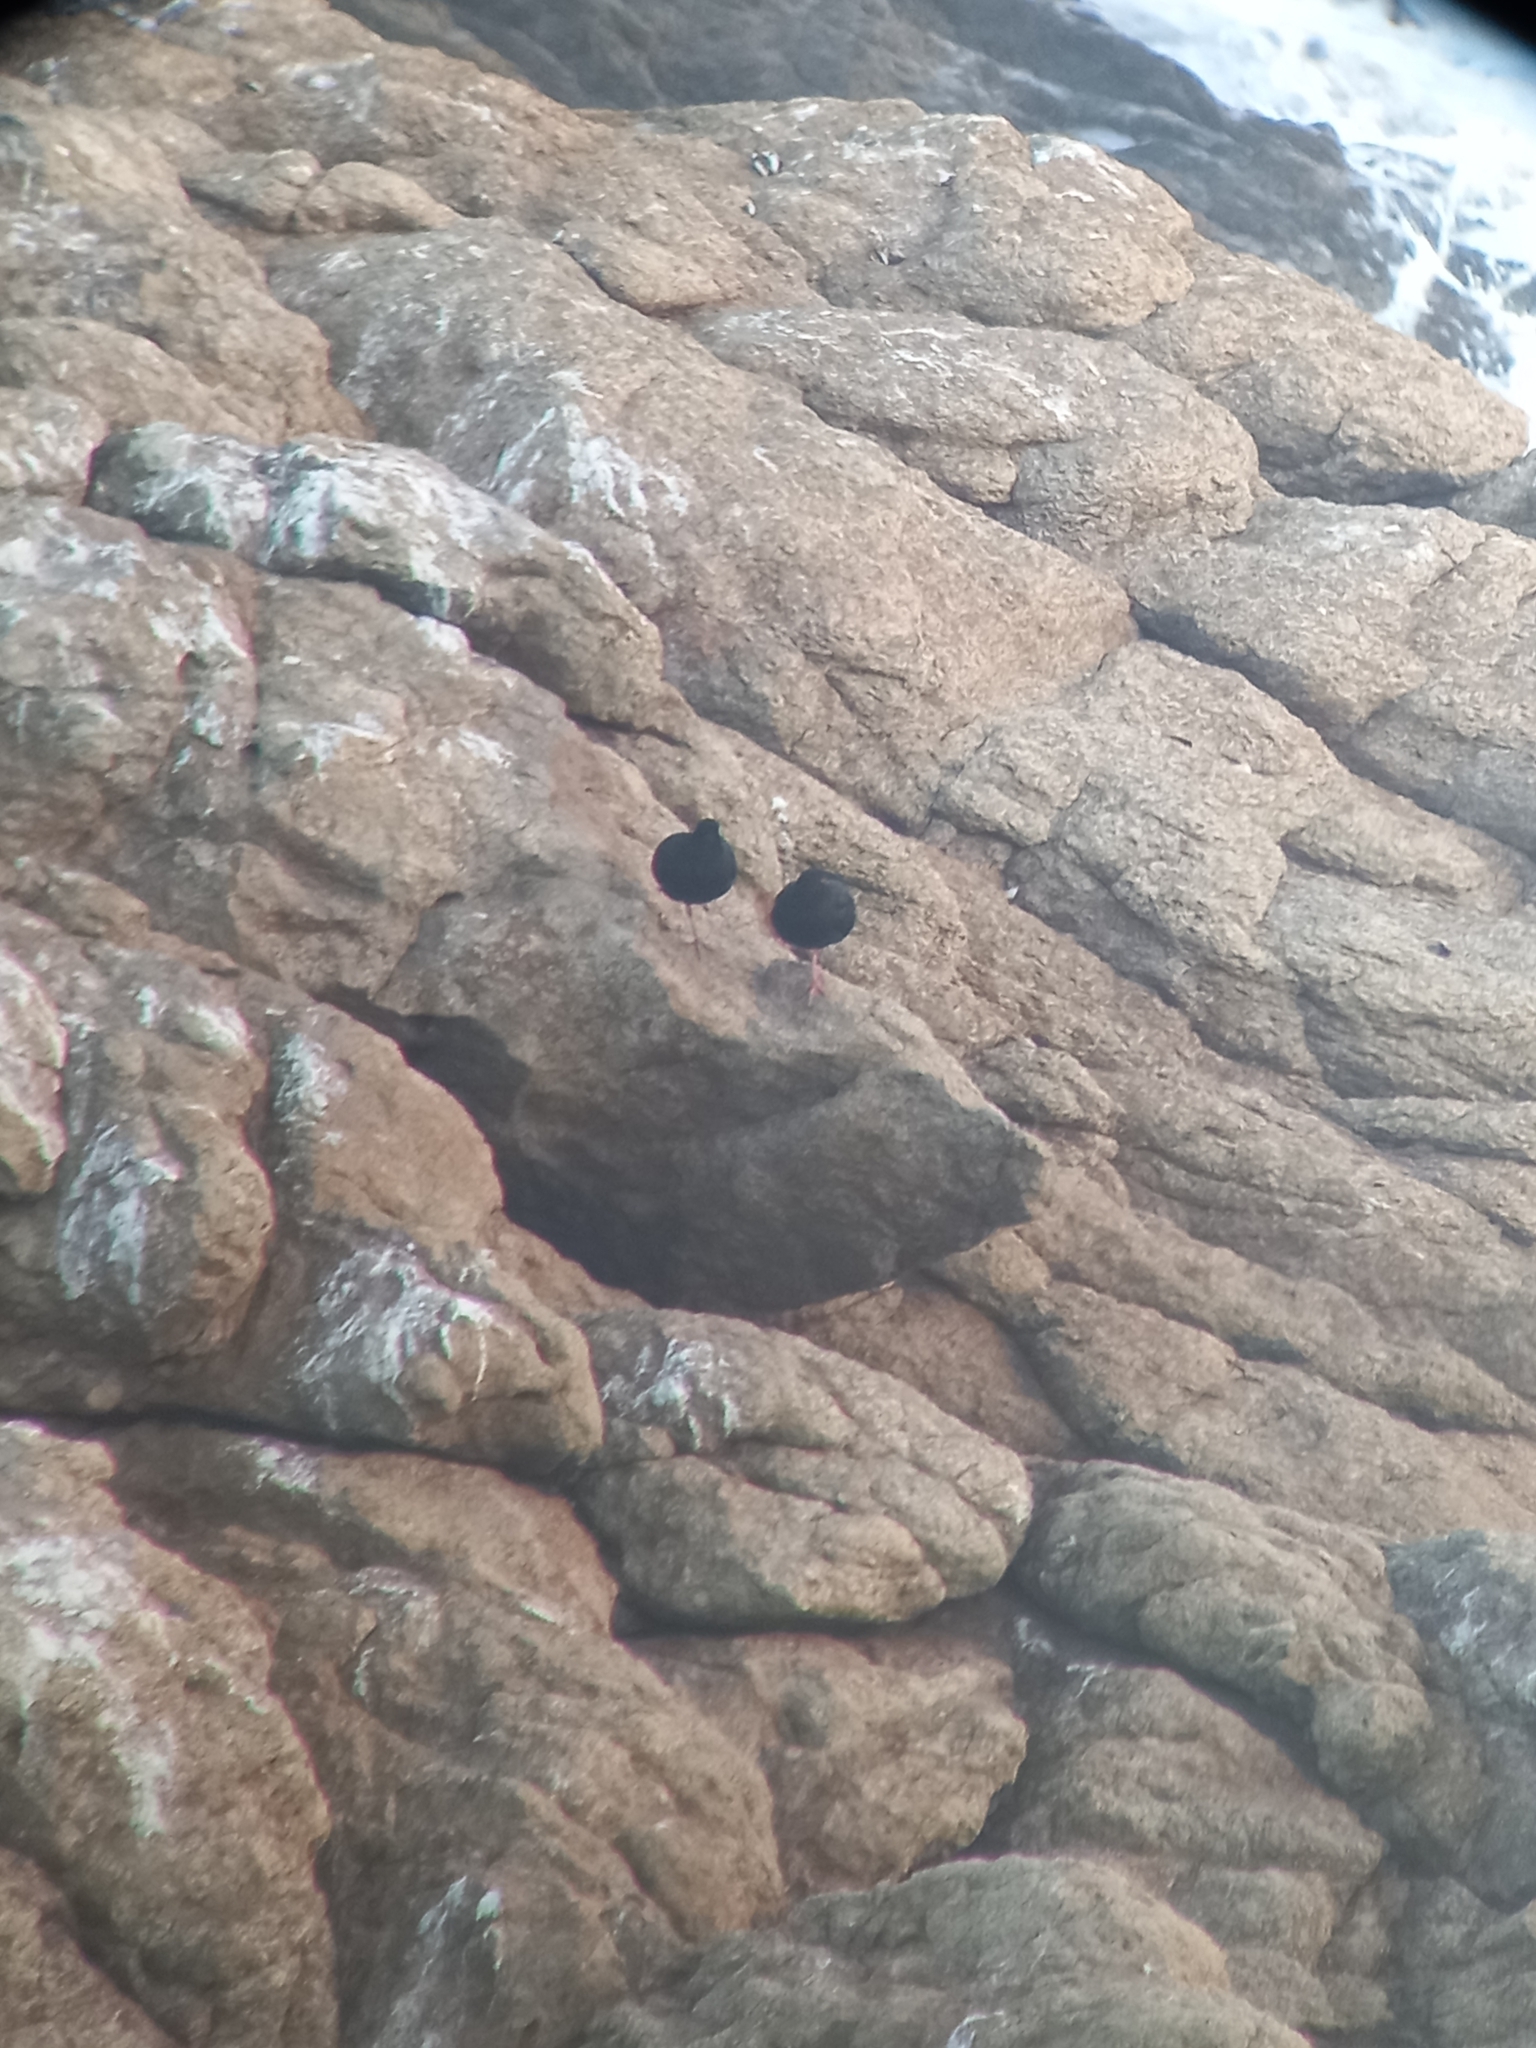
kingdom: Animalia
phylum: Chordata
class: Aves
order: Charadriiformes
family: Haematopodidae
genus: Haematopus
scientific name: Haematopus moquini
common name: African oystercatcher
